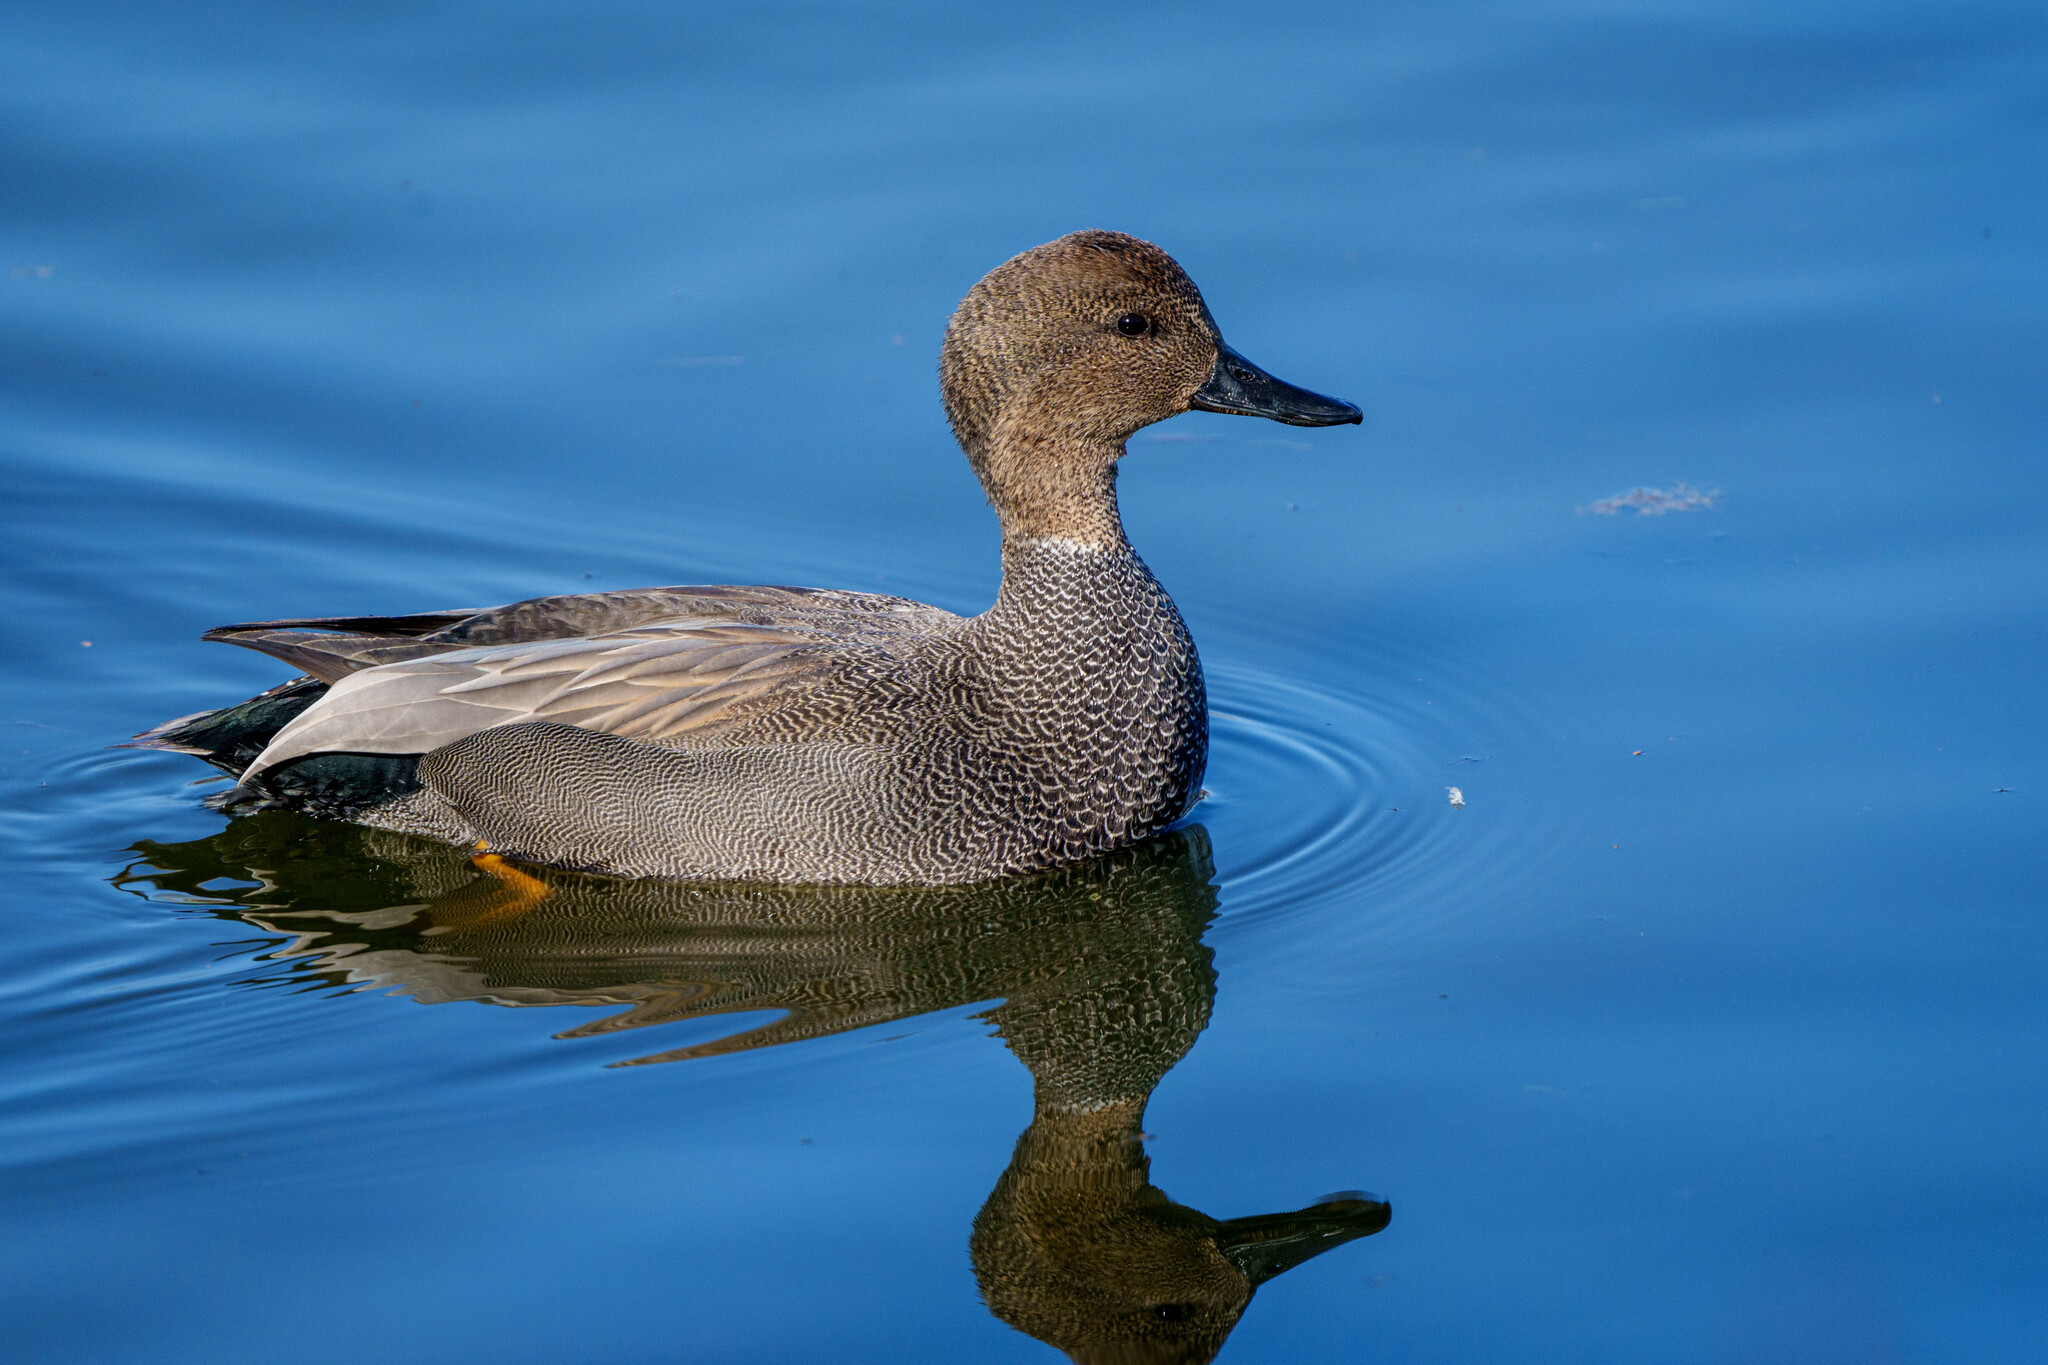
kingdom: Animalia
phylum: Chordata
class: Aves
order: Anseriformes
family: Anatidae
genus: Mareca
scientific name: Mareca strepera
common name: Gadwall
